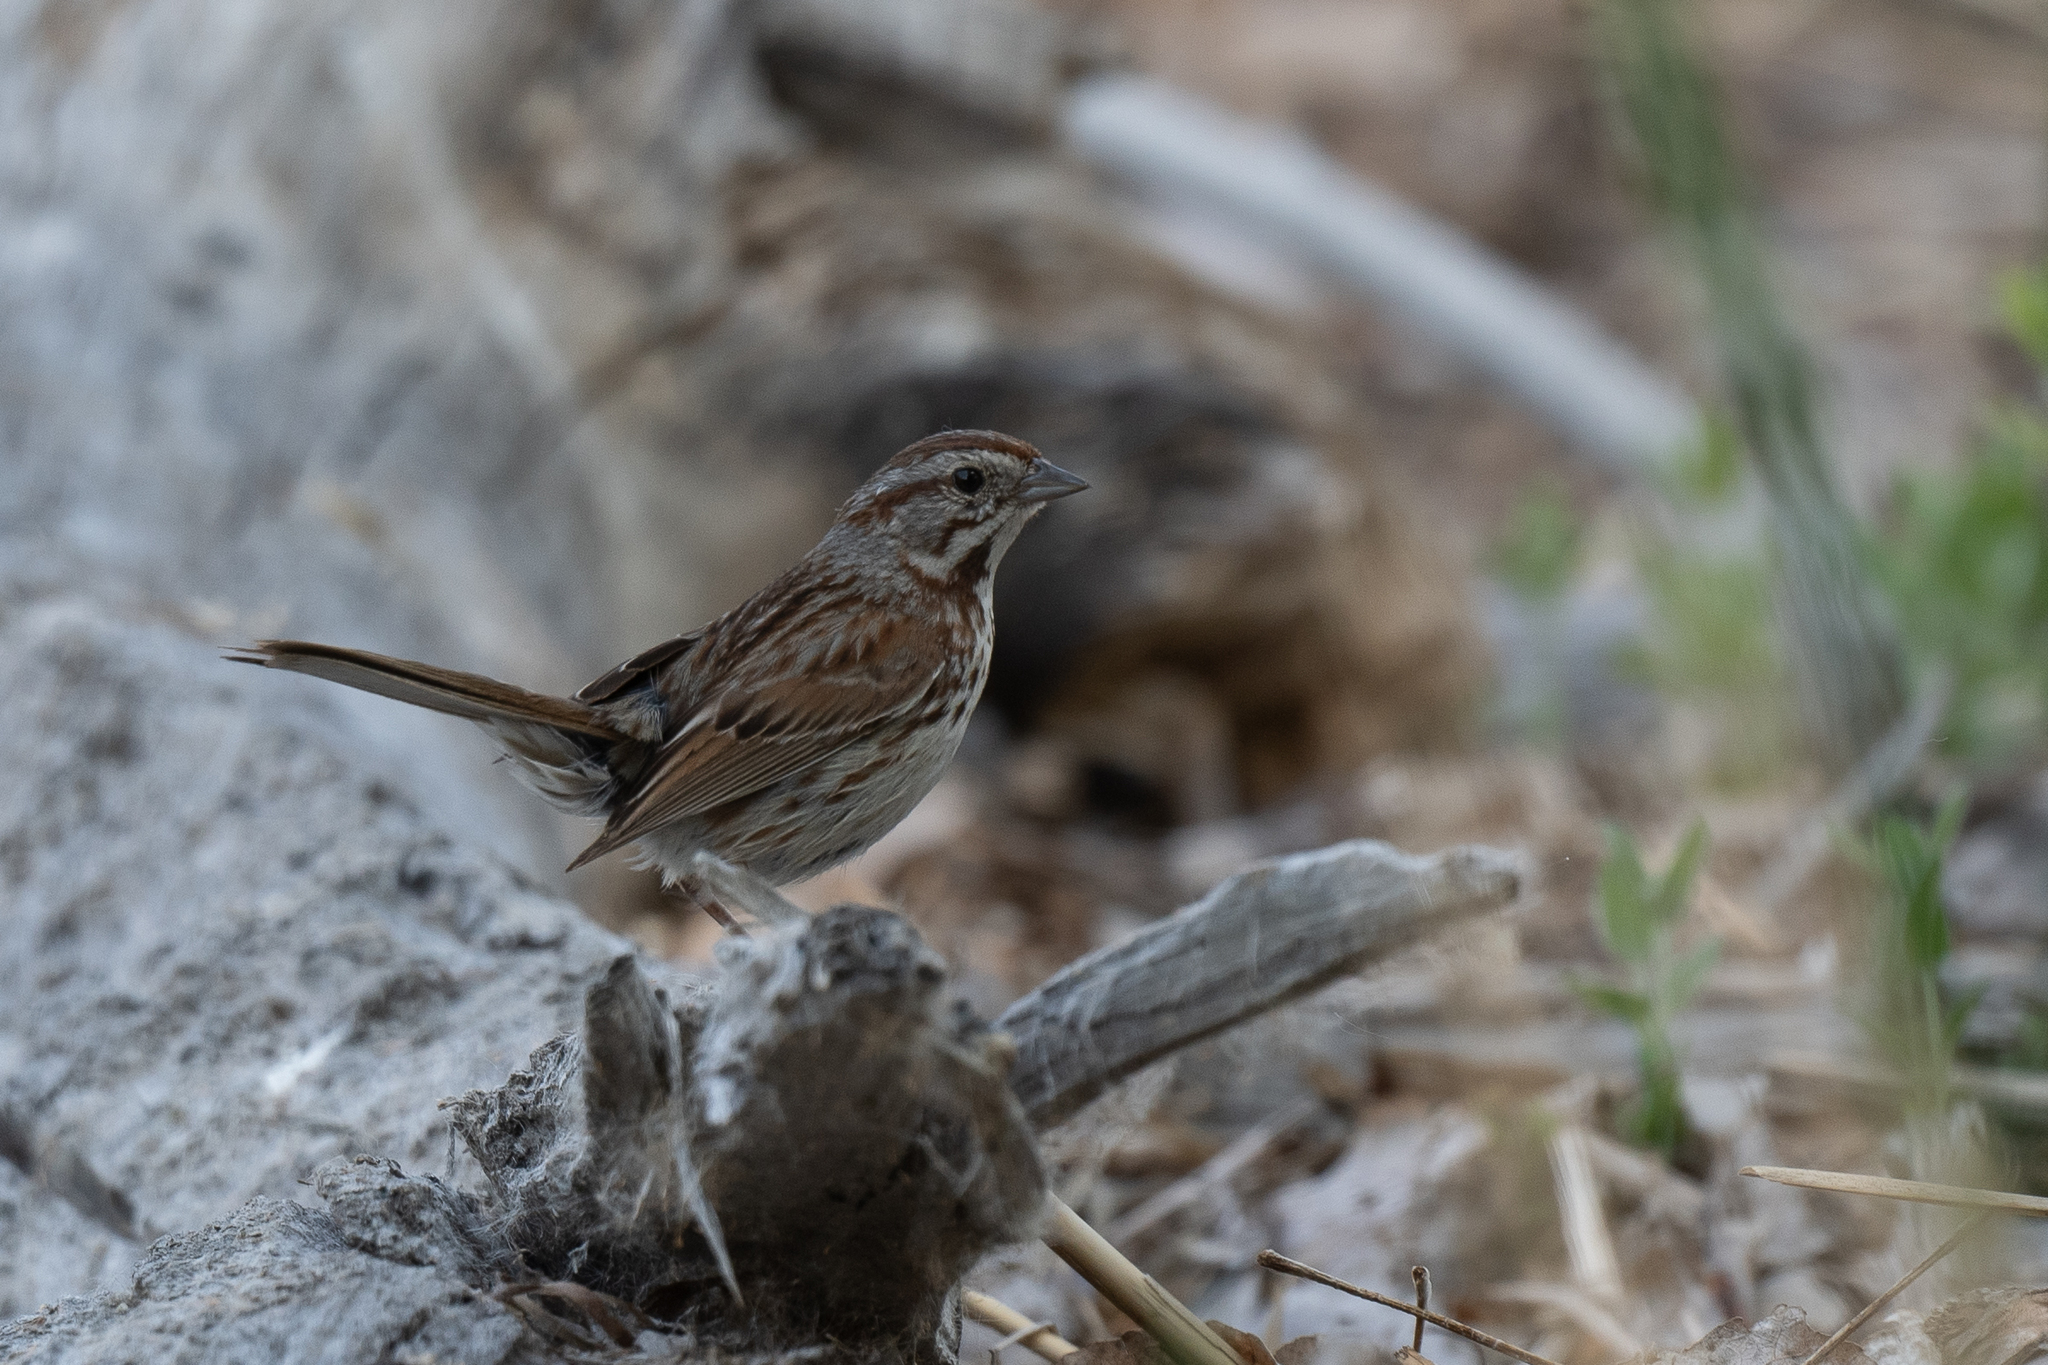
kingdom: Animalia
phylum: Chordata
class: Aves
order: Passeriformes
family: Passerellidae
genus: Melospiza
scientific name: Melospiza melodia
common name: Song sparrow
